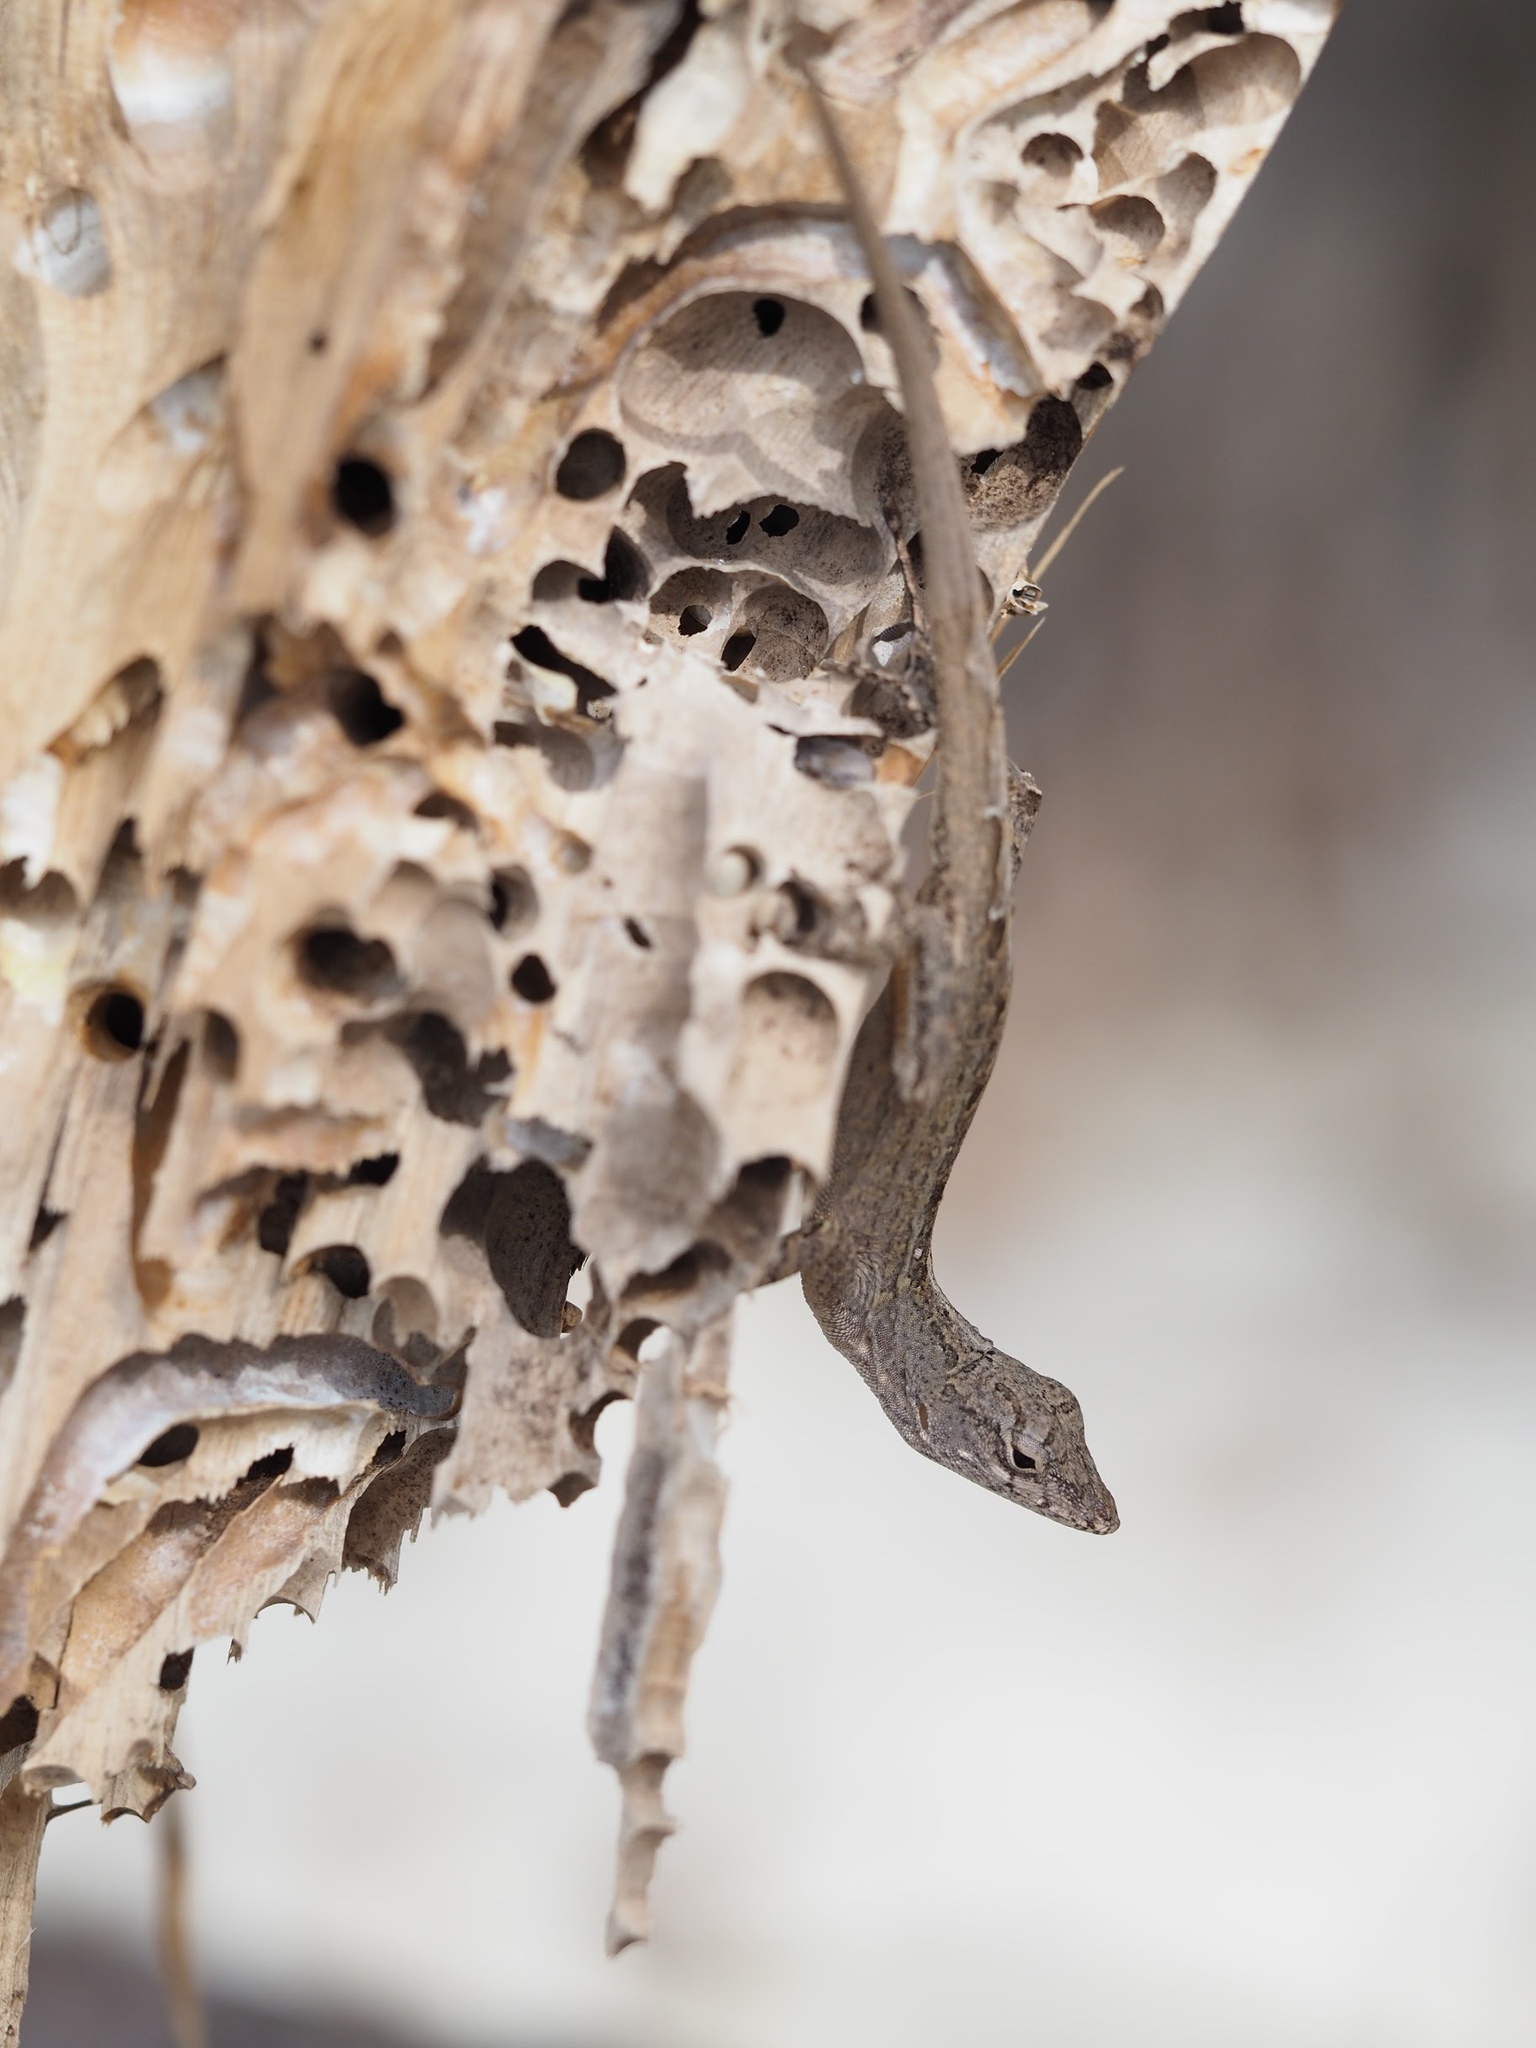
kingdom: Animalia
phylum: Chordata
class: Squamata
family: Dactyloidae
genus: Anolis
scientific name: Anolis sagrei
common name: Brown anole
